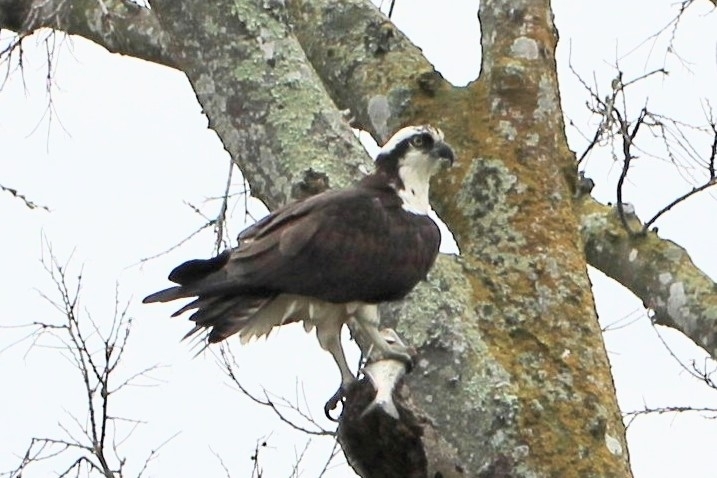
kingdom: Animalia
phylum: Chordata
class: Aves
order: Accipitriformes
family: Pandionidae
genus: Pandion
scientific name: Pandion haliaetus
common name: Osprey
